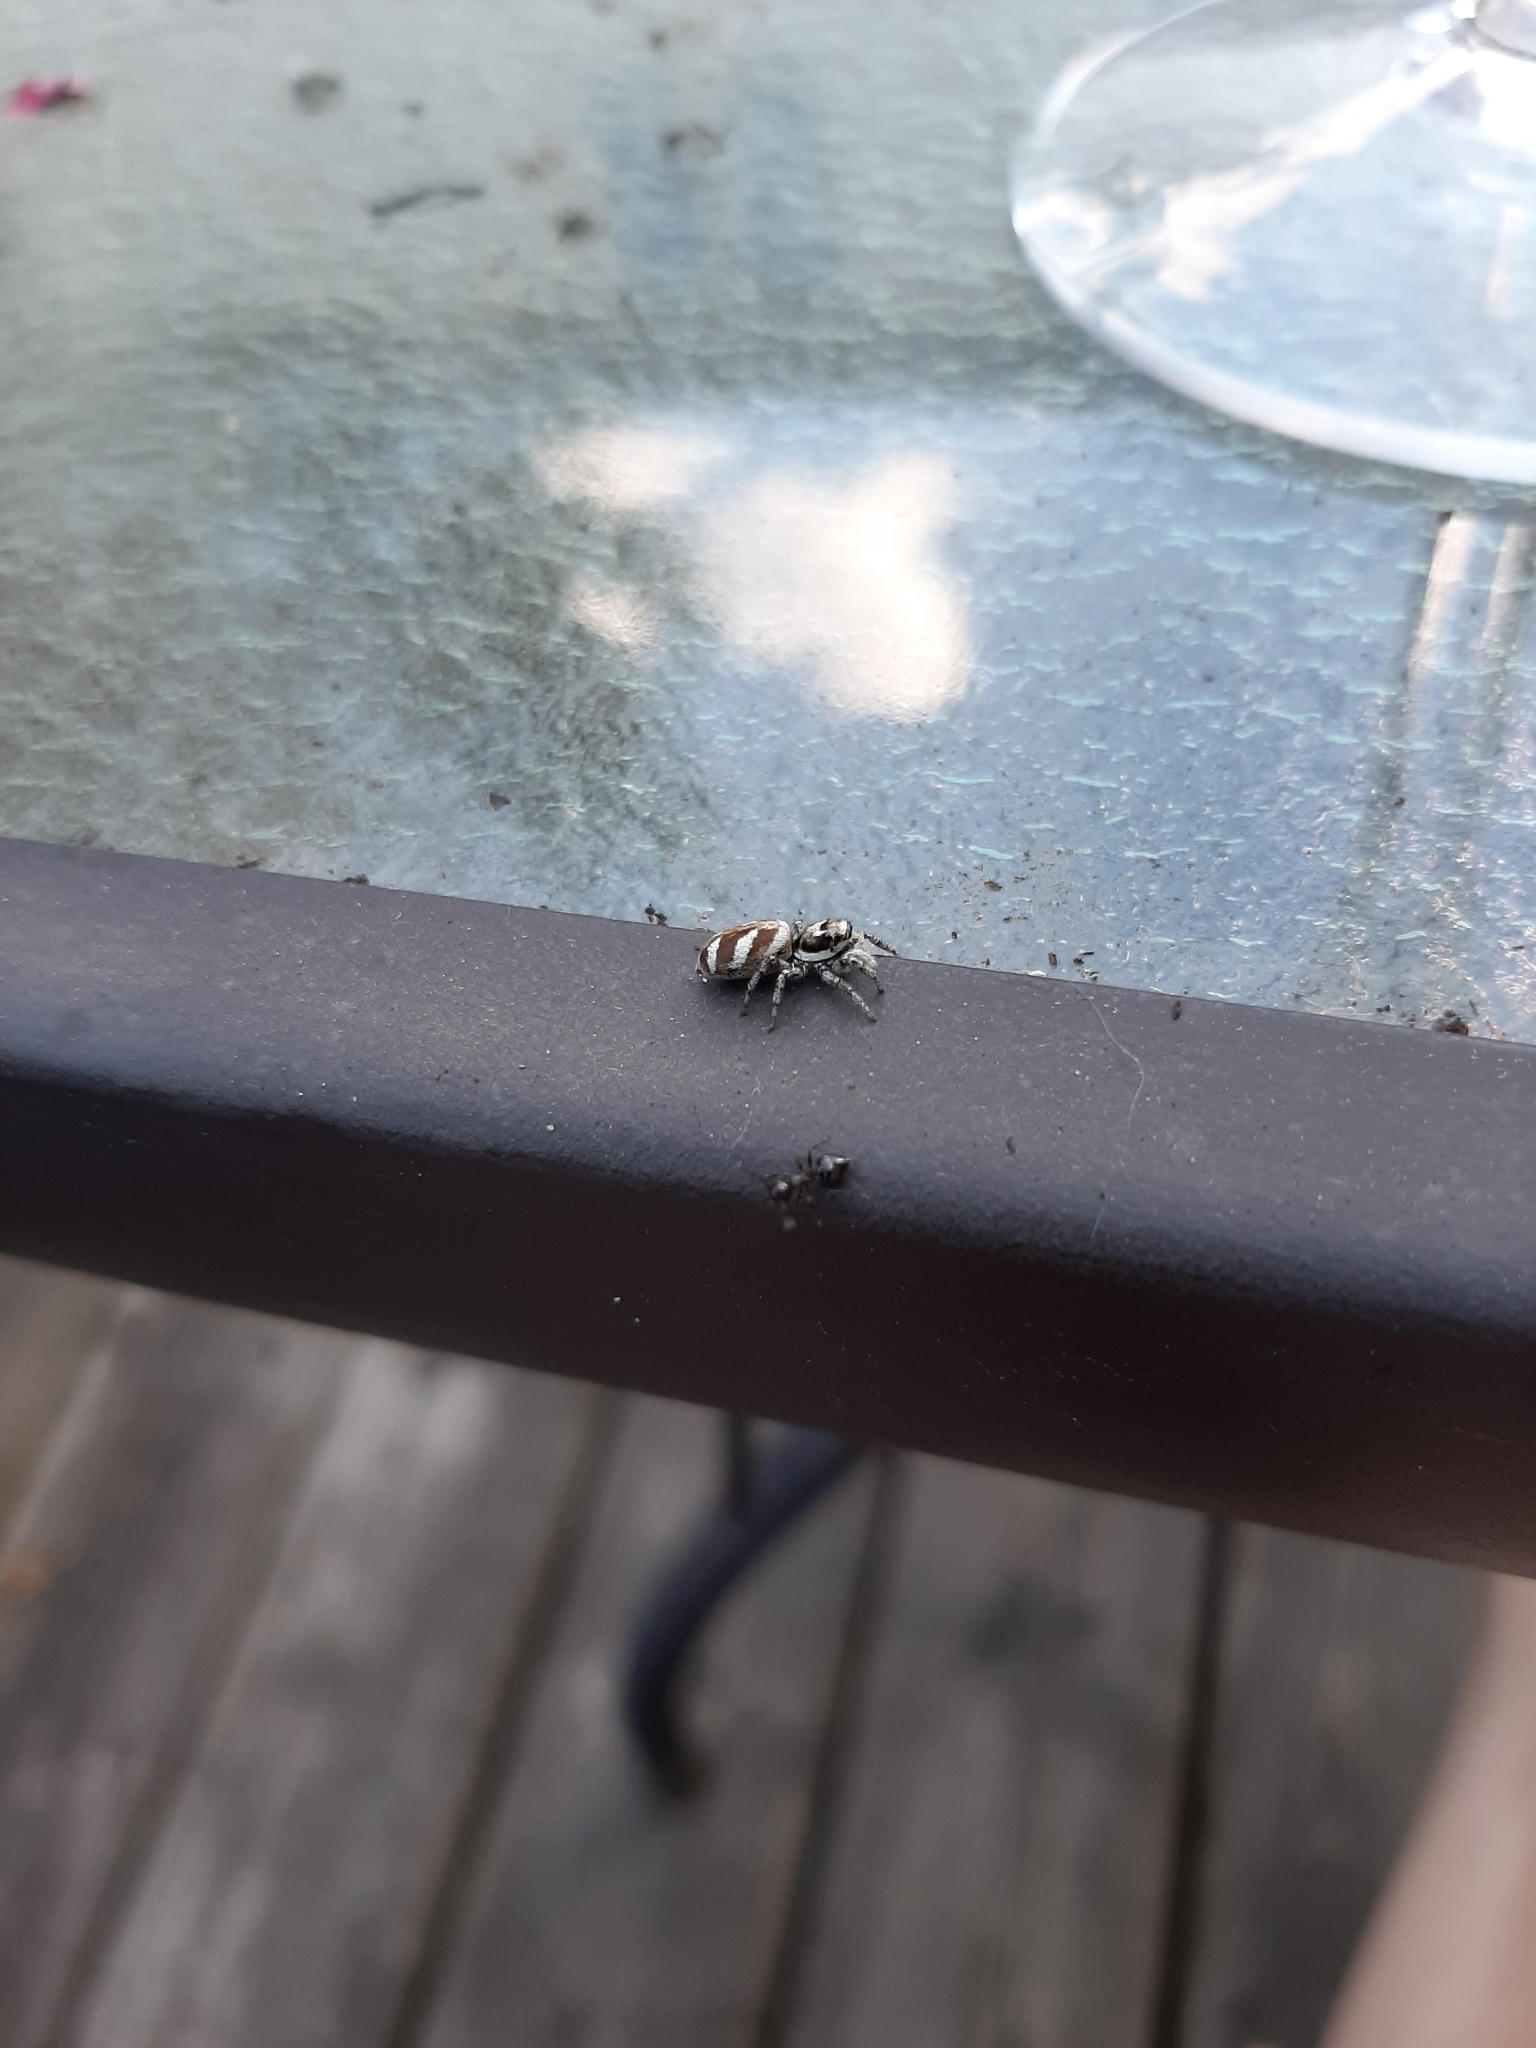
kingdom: Animalia
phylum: Arthropoda
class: Arachnida
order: Araneae
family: Salticidae
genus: Salticus
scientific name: Salticus scenicus
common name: Zebra jumper
